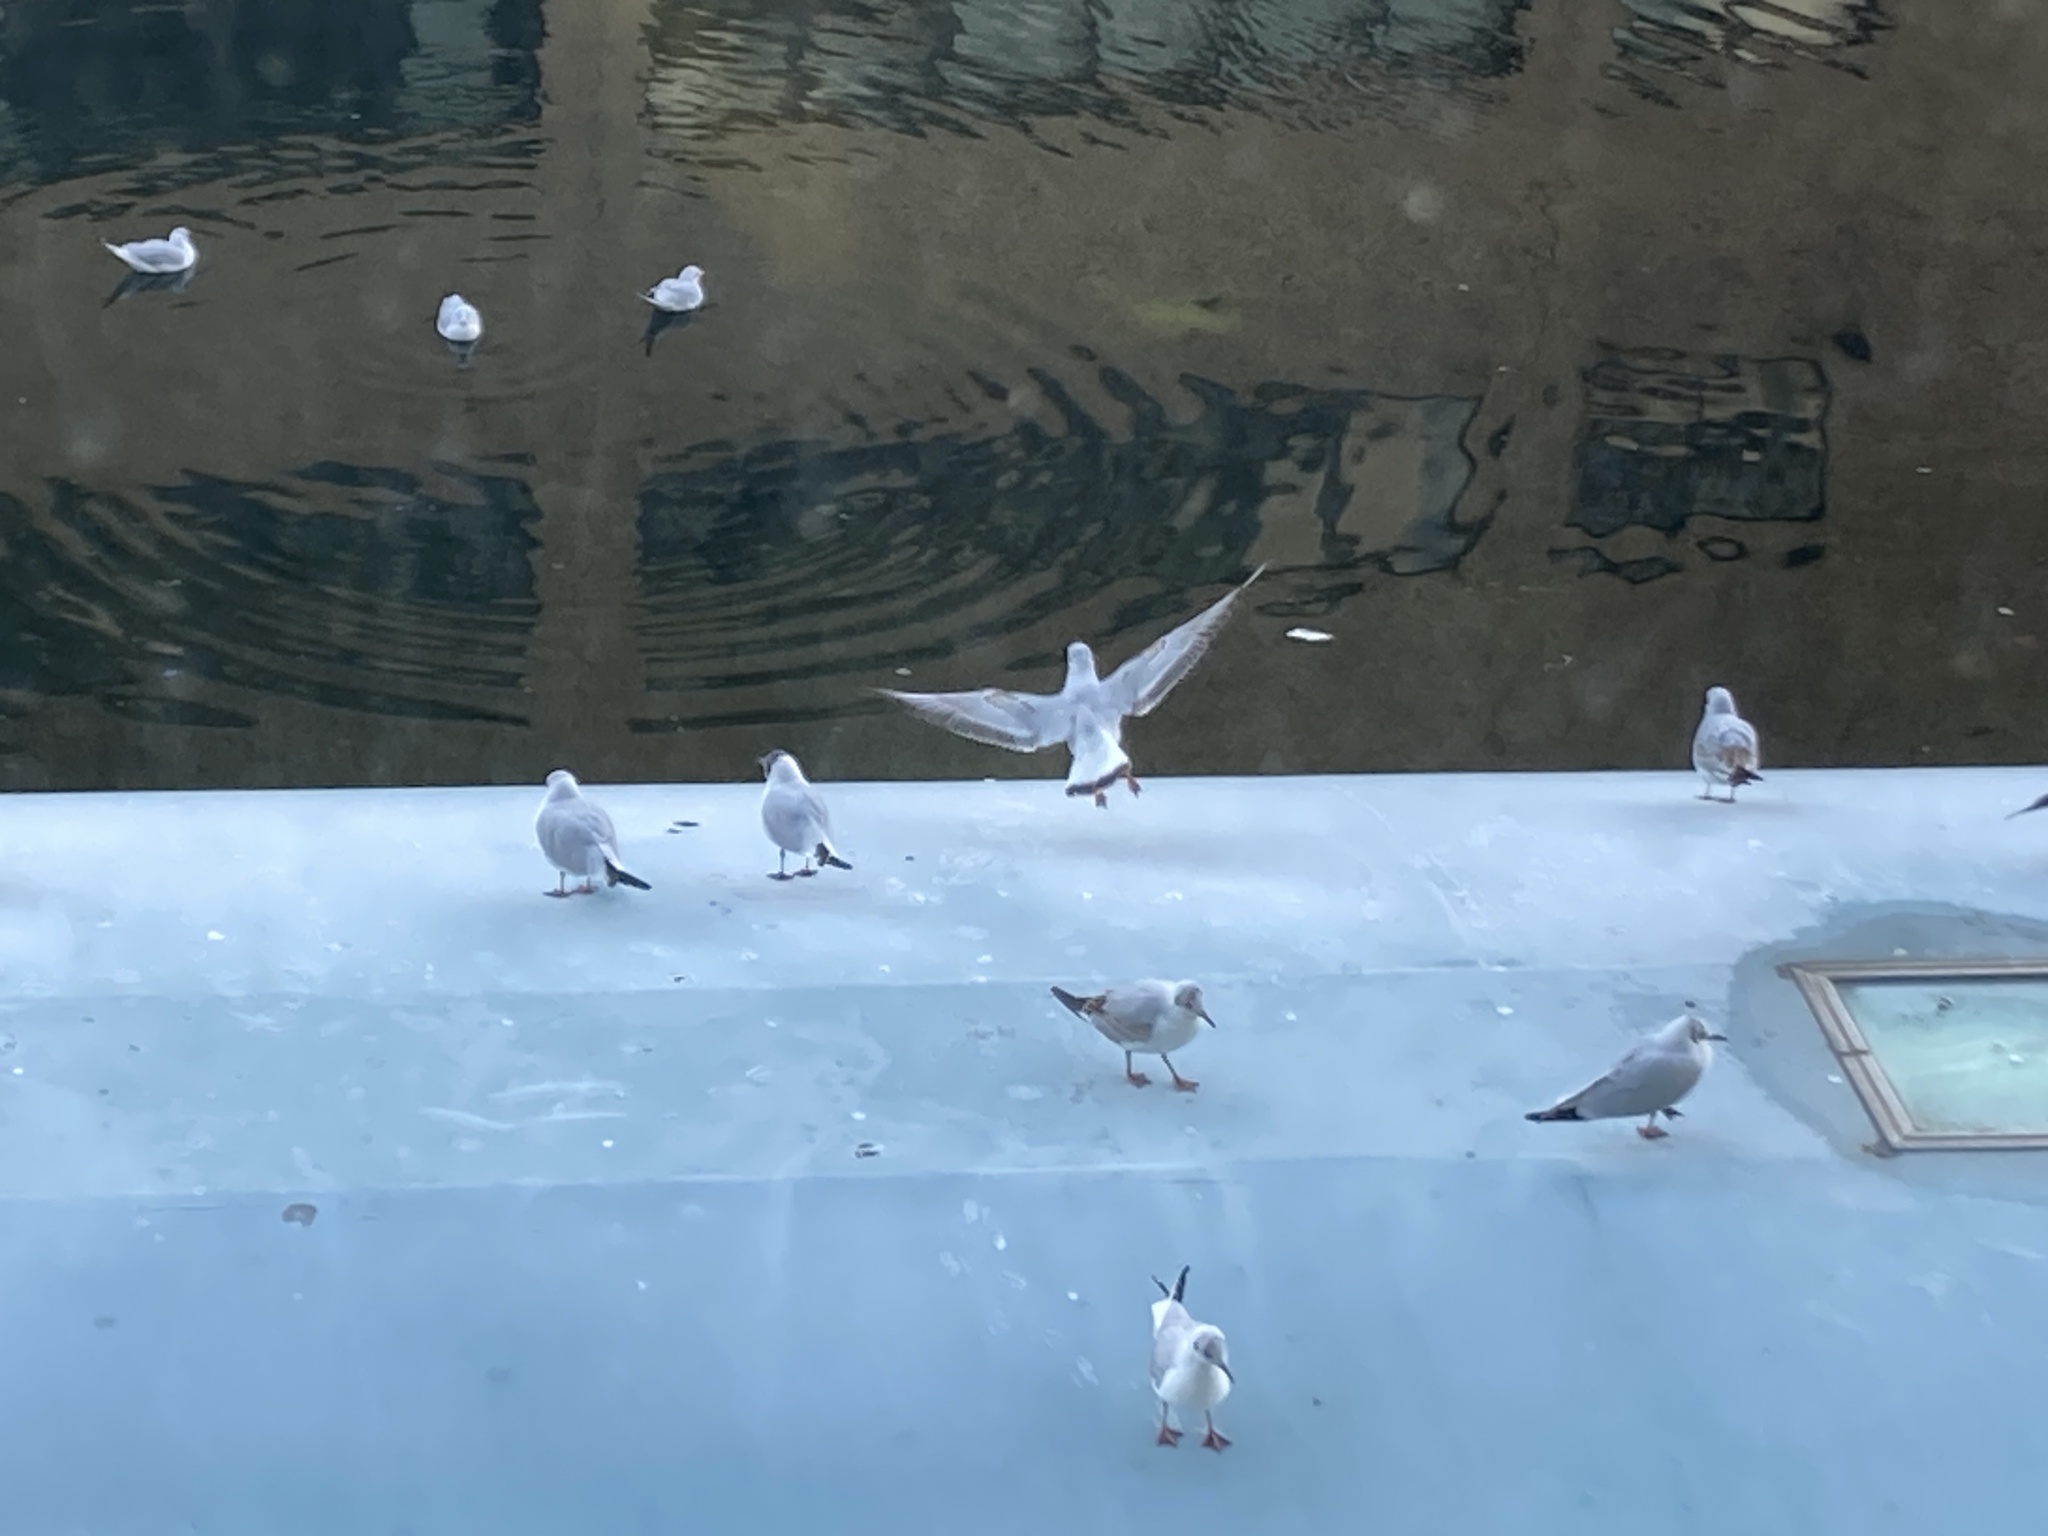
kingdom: Animalia
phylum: Chordata
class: Aves
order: Charadriiformes
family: Laridae
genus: Chroicocephalus
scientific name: Chroicocephalus ridibundus
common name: Black-headed gull
